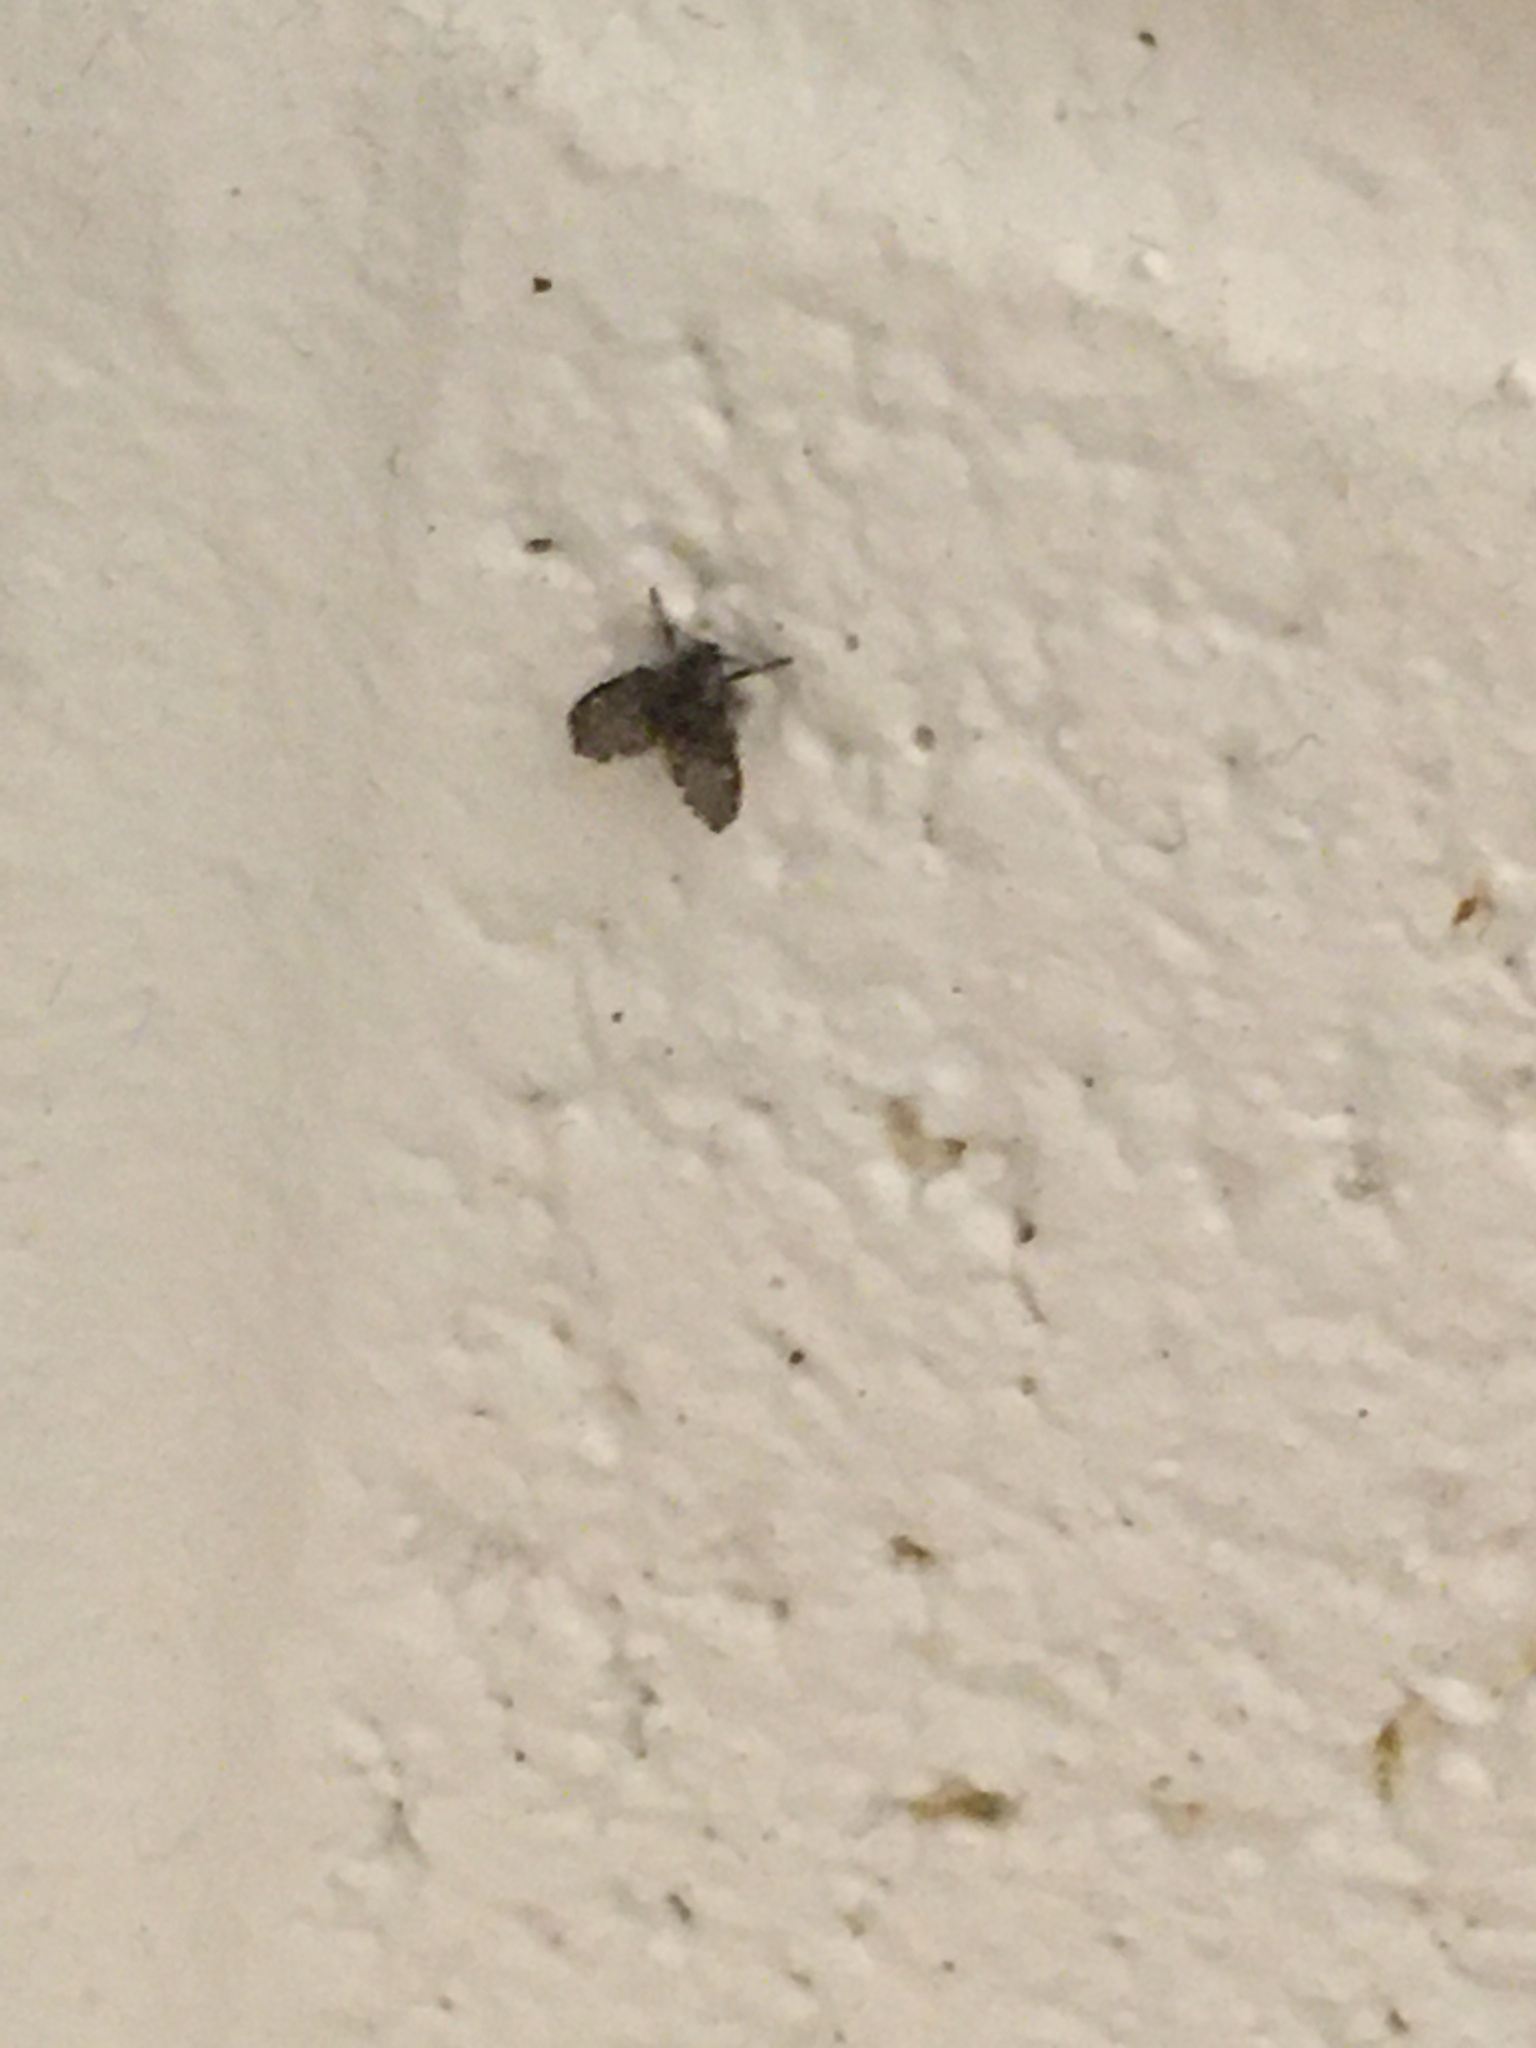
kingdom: Animalia
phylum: Arthropoda
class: Insecta
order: Diptera
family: Psychodidae
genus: Clogmia
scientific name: Clogmia albipunctatus
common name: White-spotted moth fly
